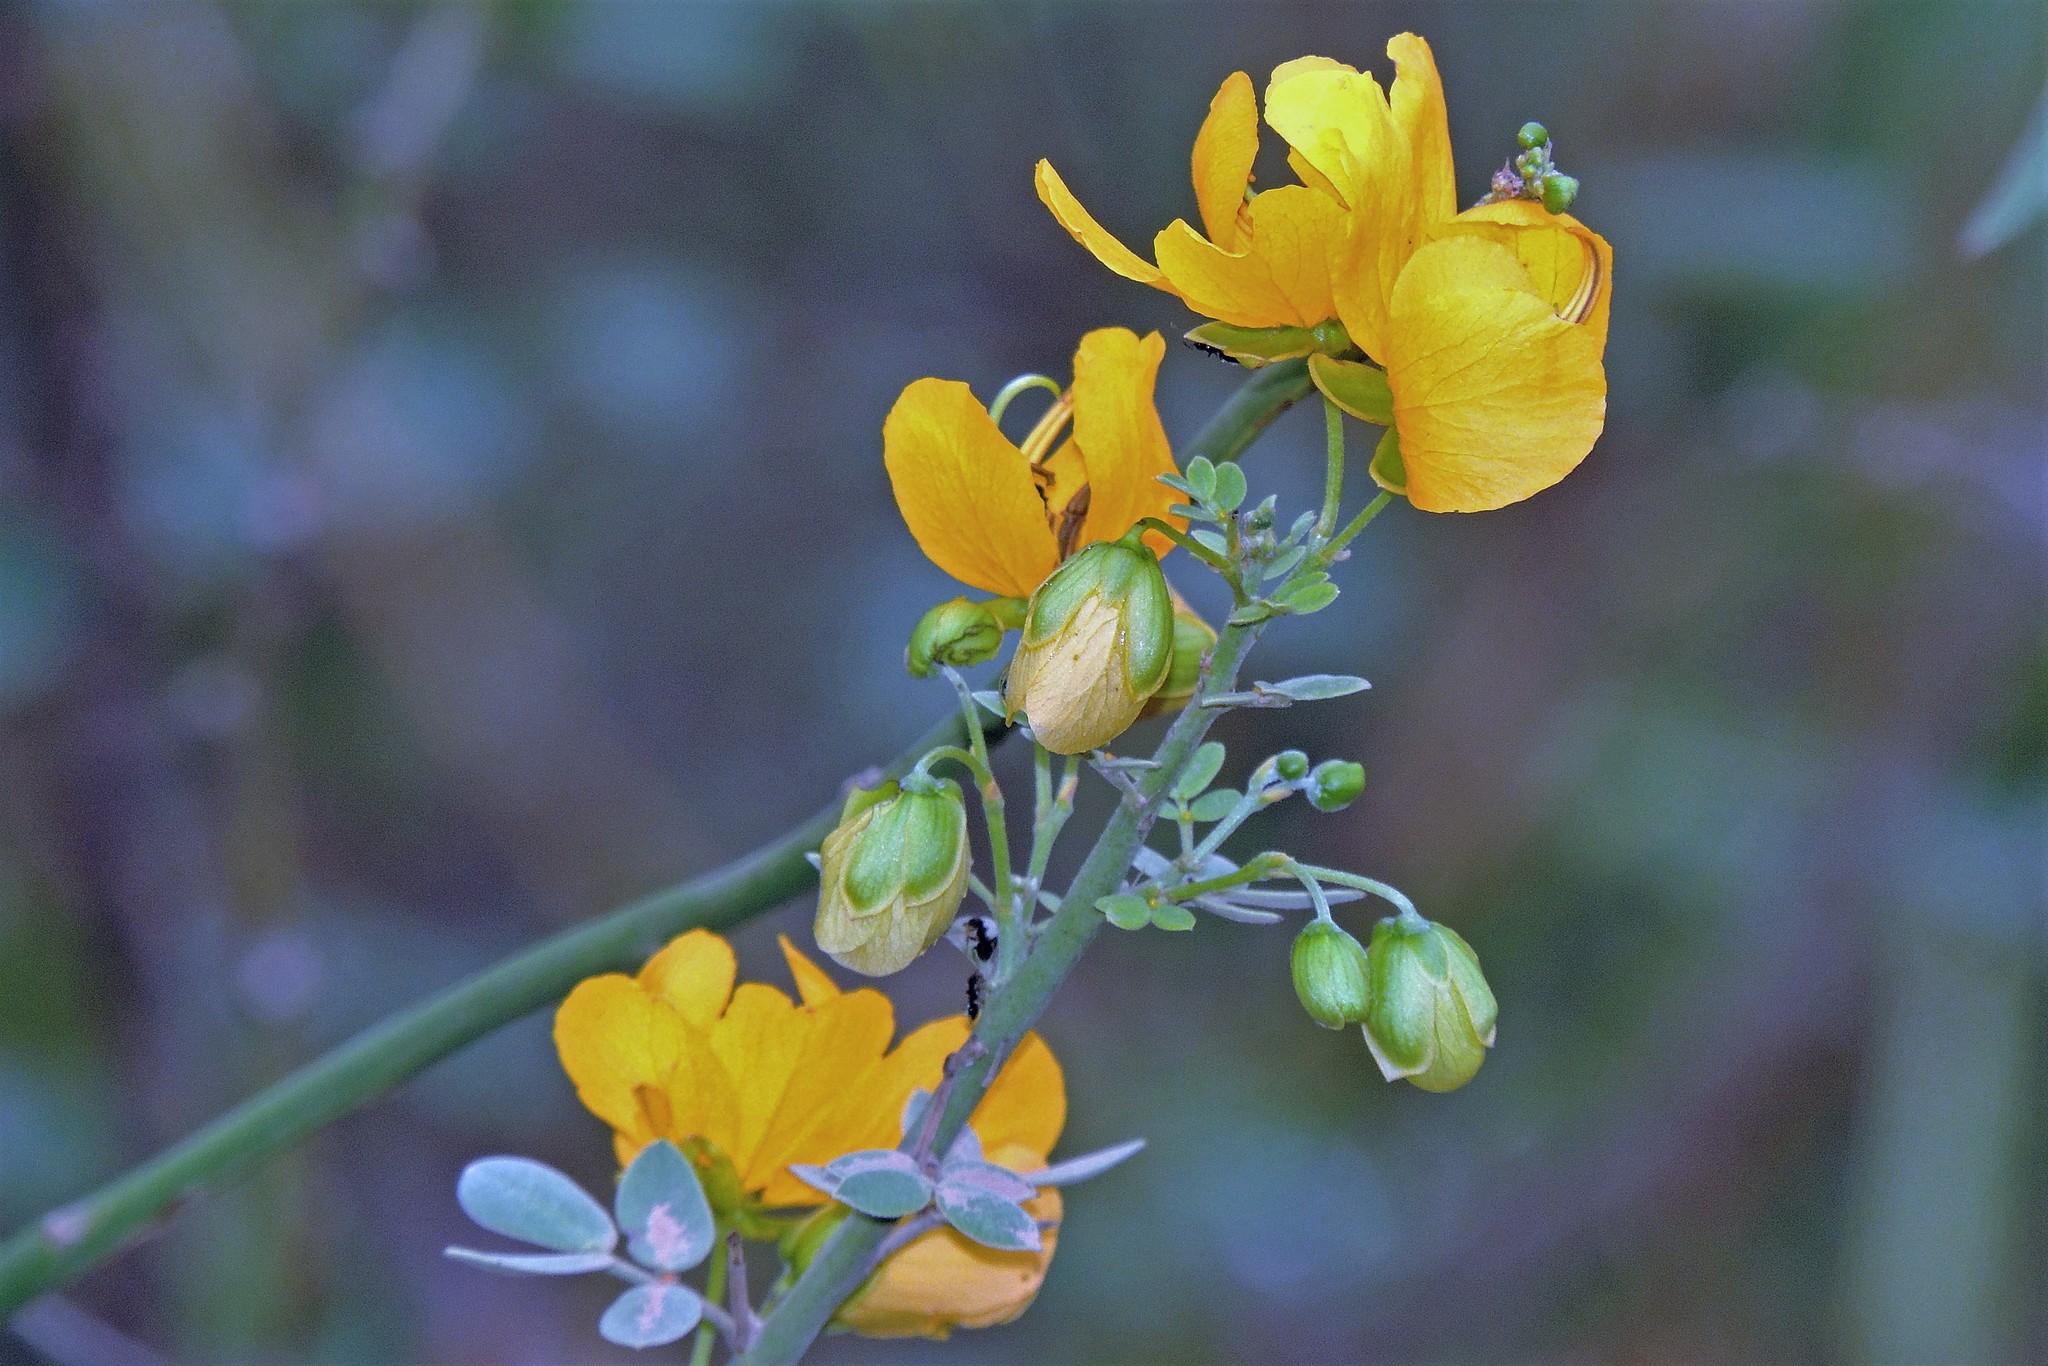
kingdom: Plantae
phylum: Tracheophyta
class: Magnoliopsida
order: Fabales
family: Fabaceae
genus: Senna
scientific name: Senna chloroclada
